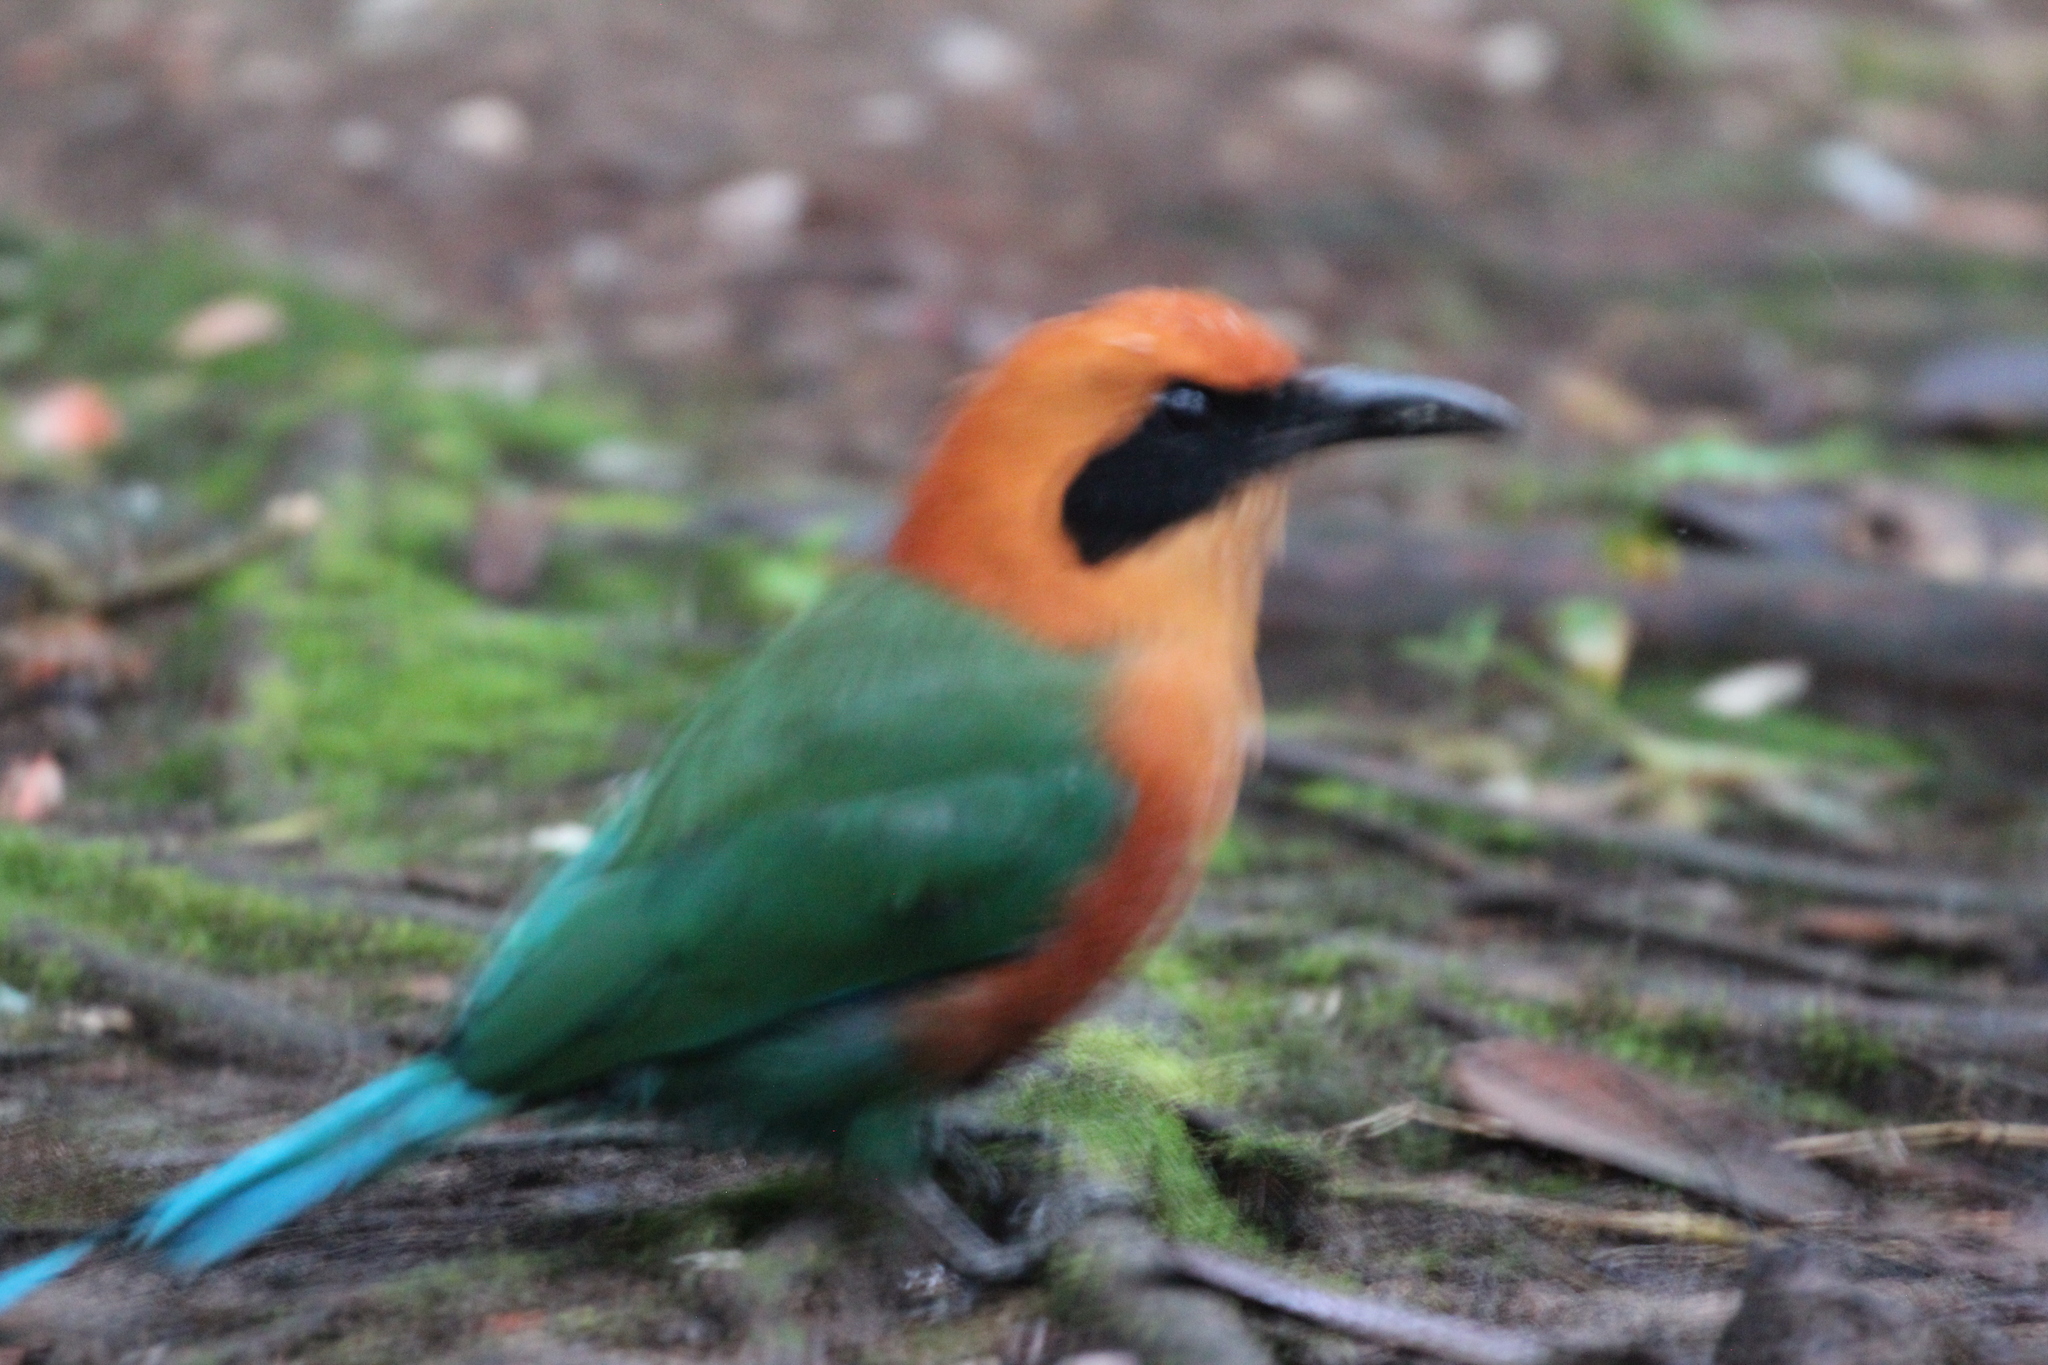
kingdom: Animalia
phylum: Chordata
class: Aves
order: Coraciiformes
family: Momotidae
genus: Baryphthengus
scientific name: Baryphthengus martii
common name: Rufous motmot
